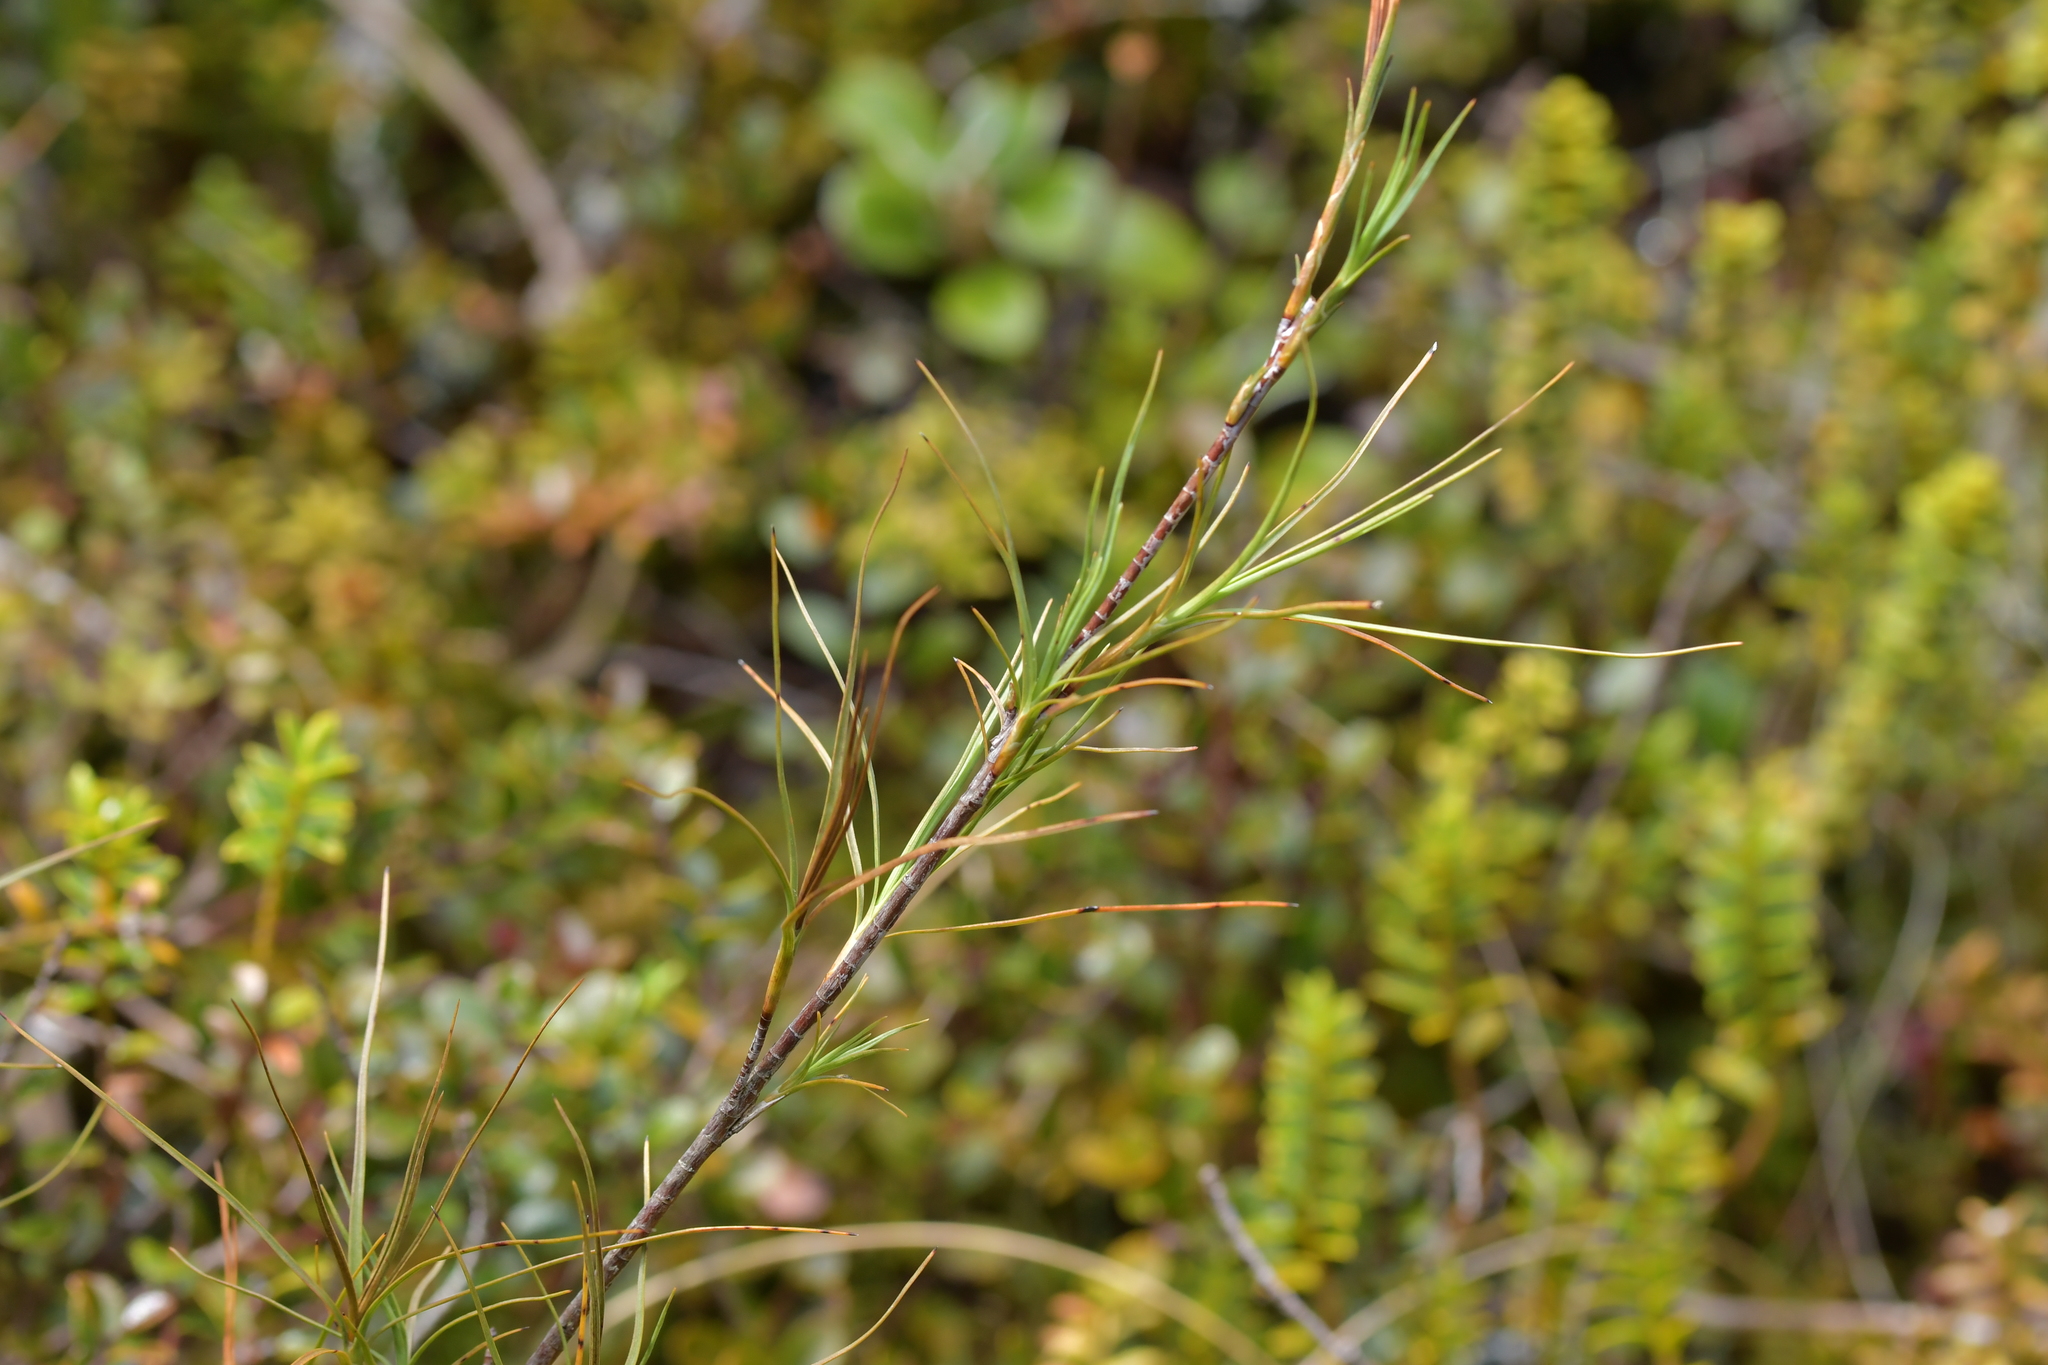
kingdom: Plantae
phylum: Tracheophyta
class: Magnoliopsida
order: Ericales
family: Ericaceae
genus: Dracophyllum
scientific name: Dracophyllum filifolium
